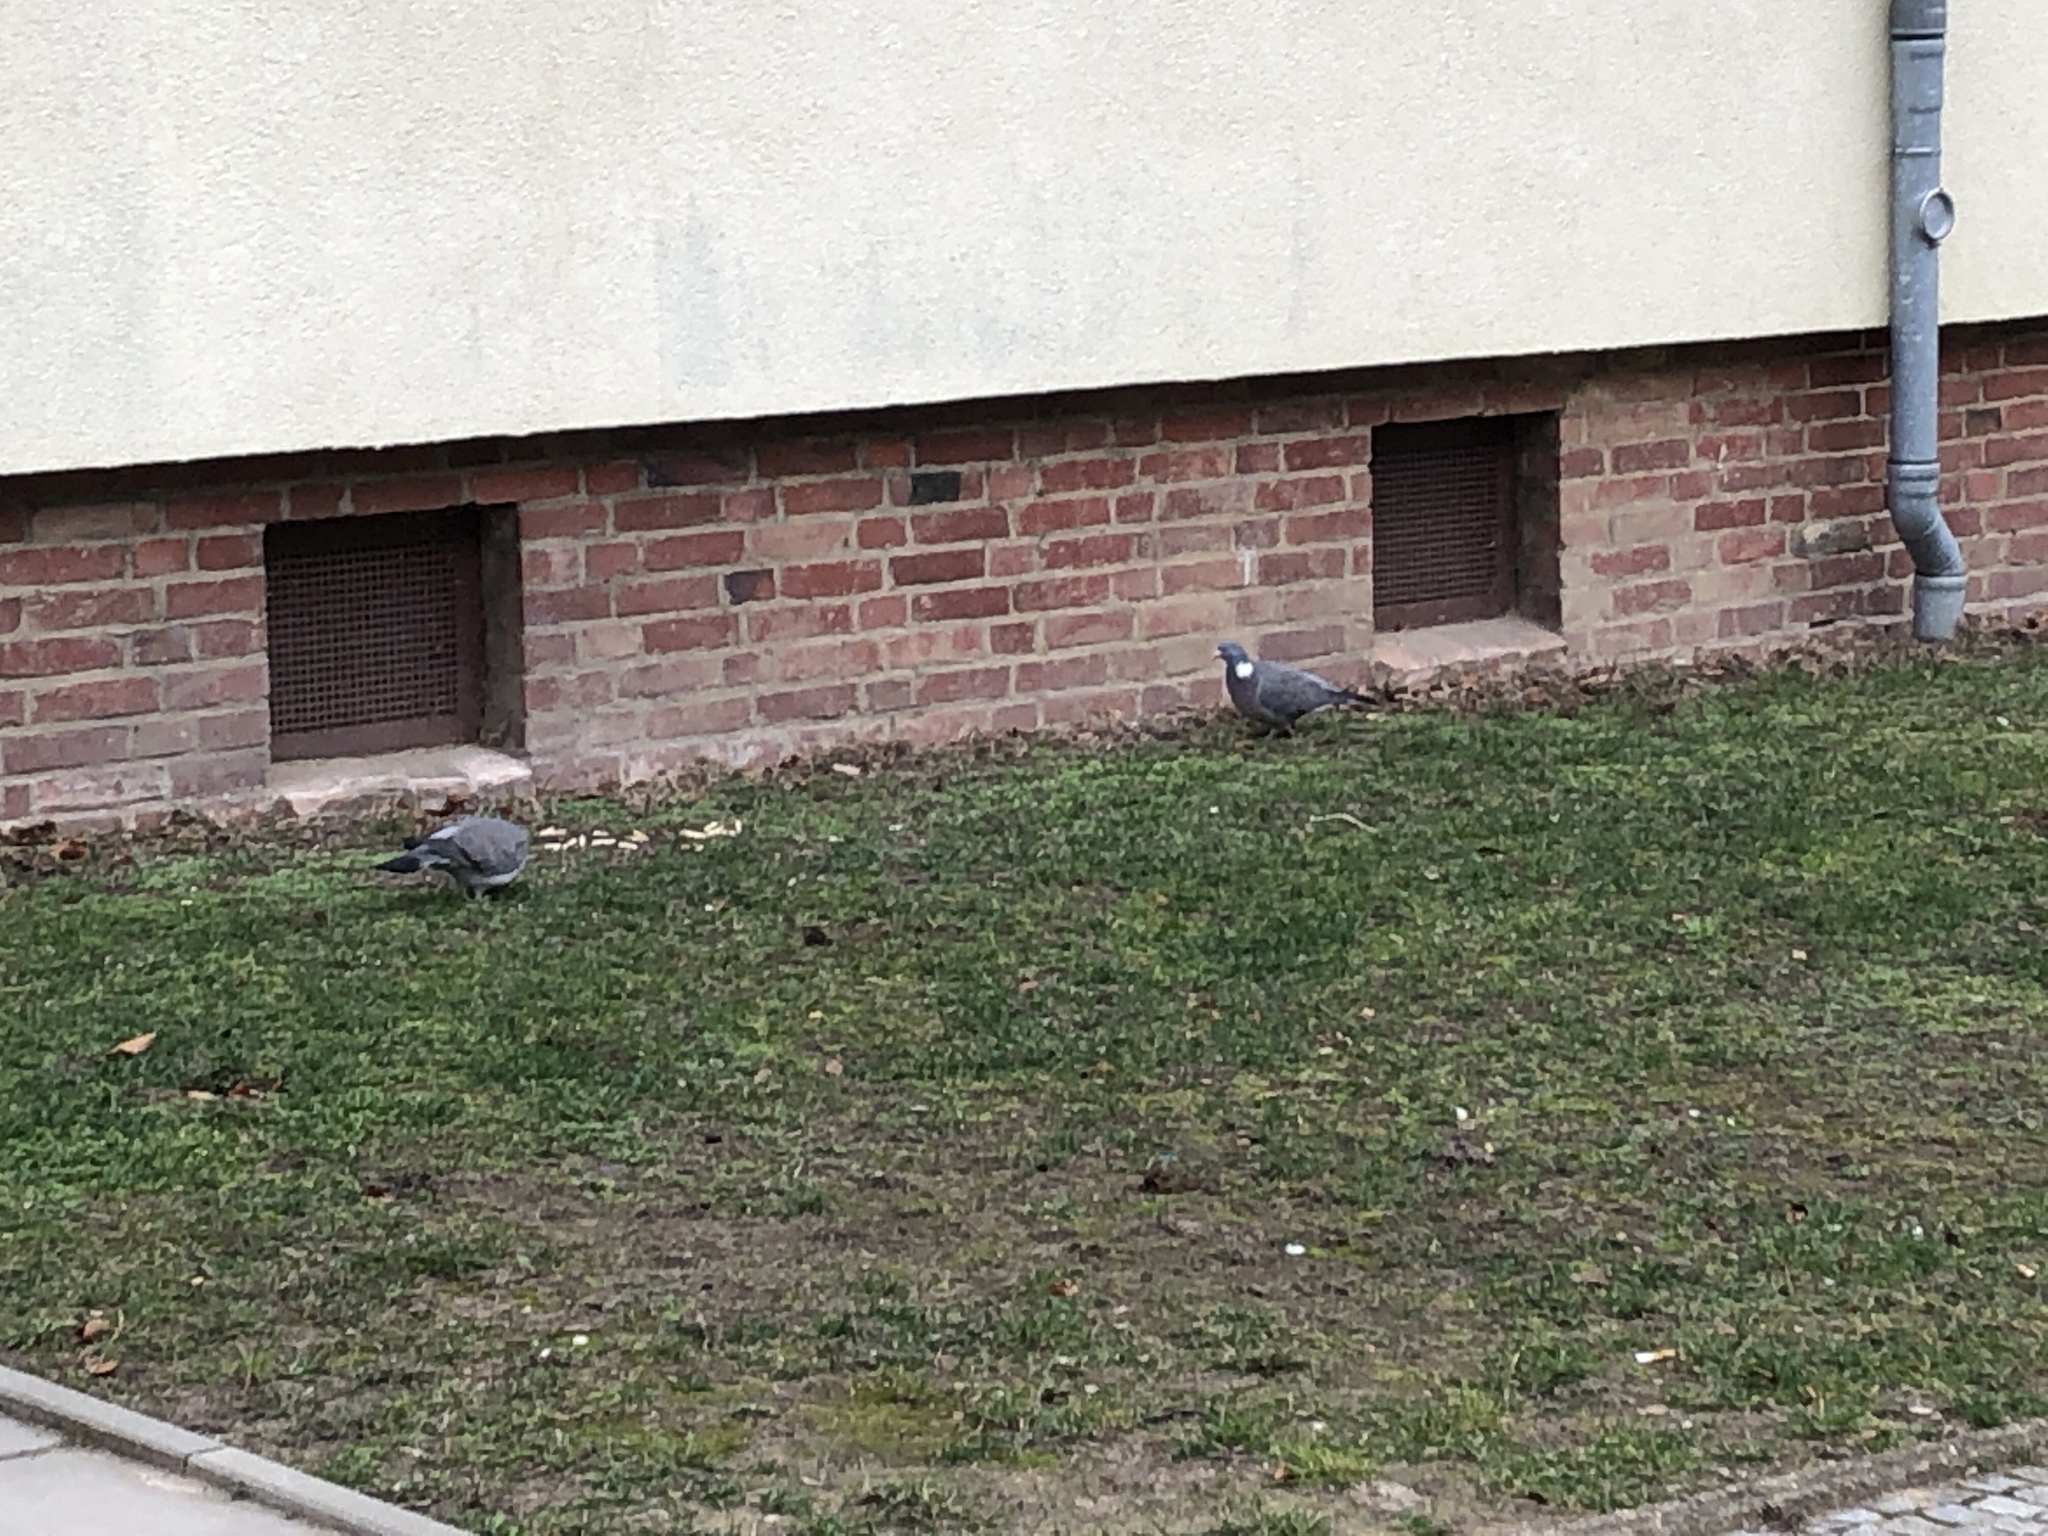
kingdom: Animalia
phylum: Chordata
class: Aves
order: Columbiformes
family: Columbidae
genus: Columba
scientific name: Columba palumbus
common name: Common wood pigeon
